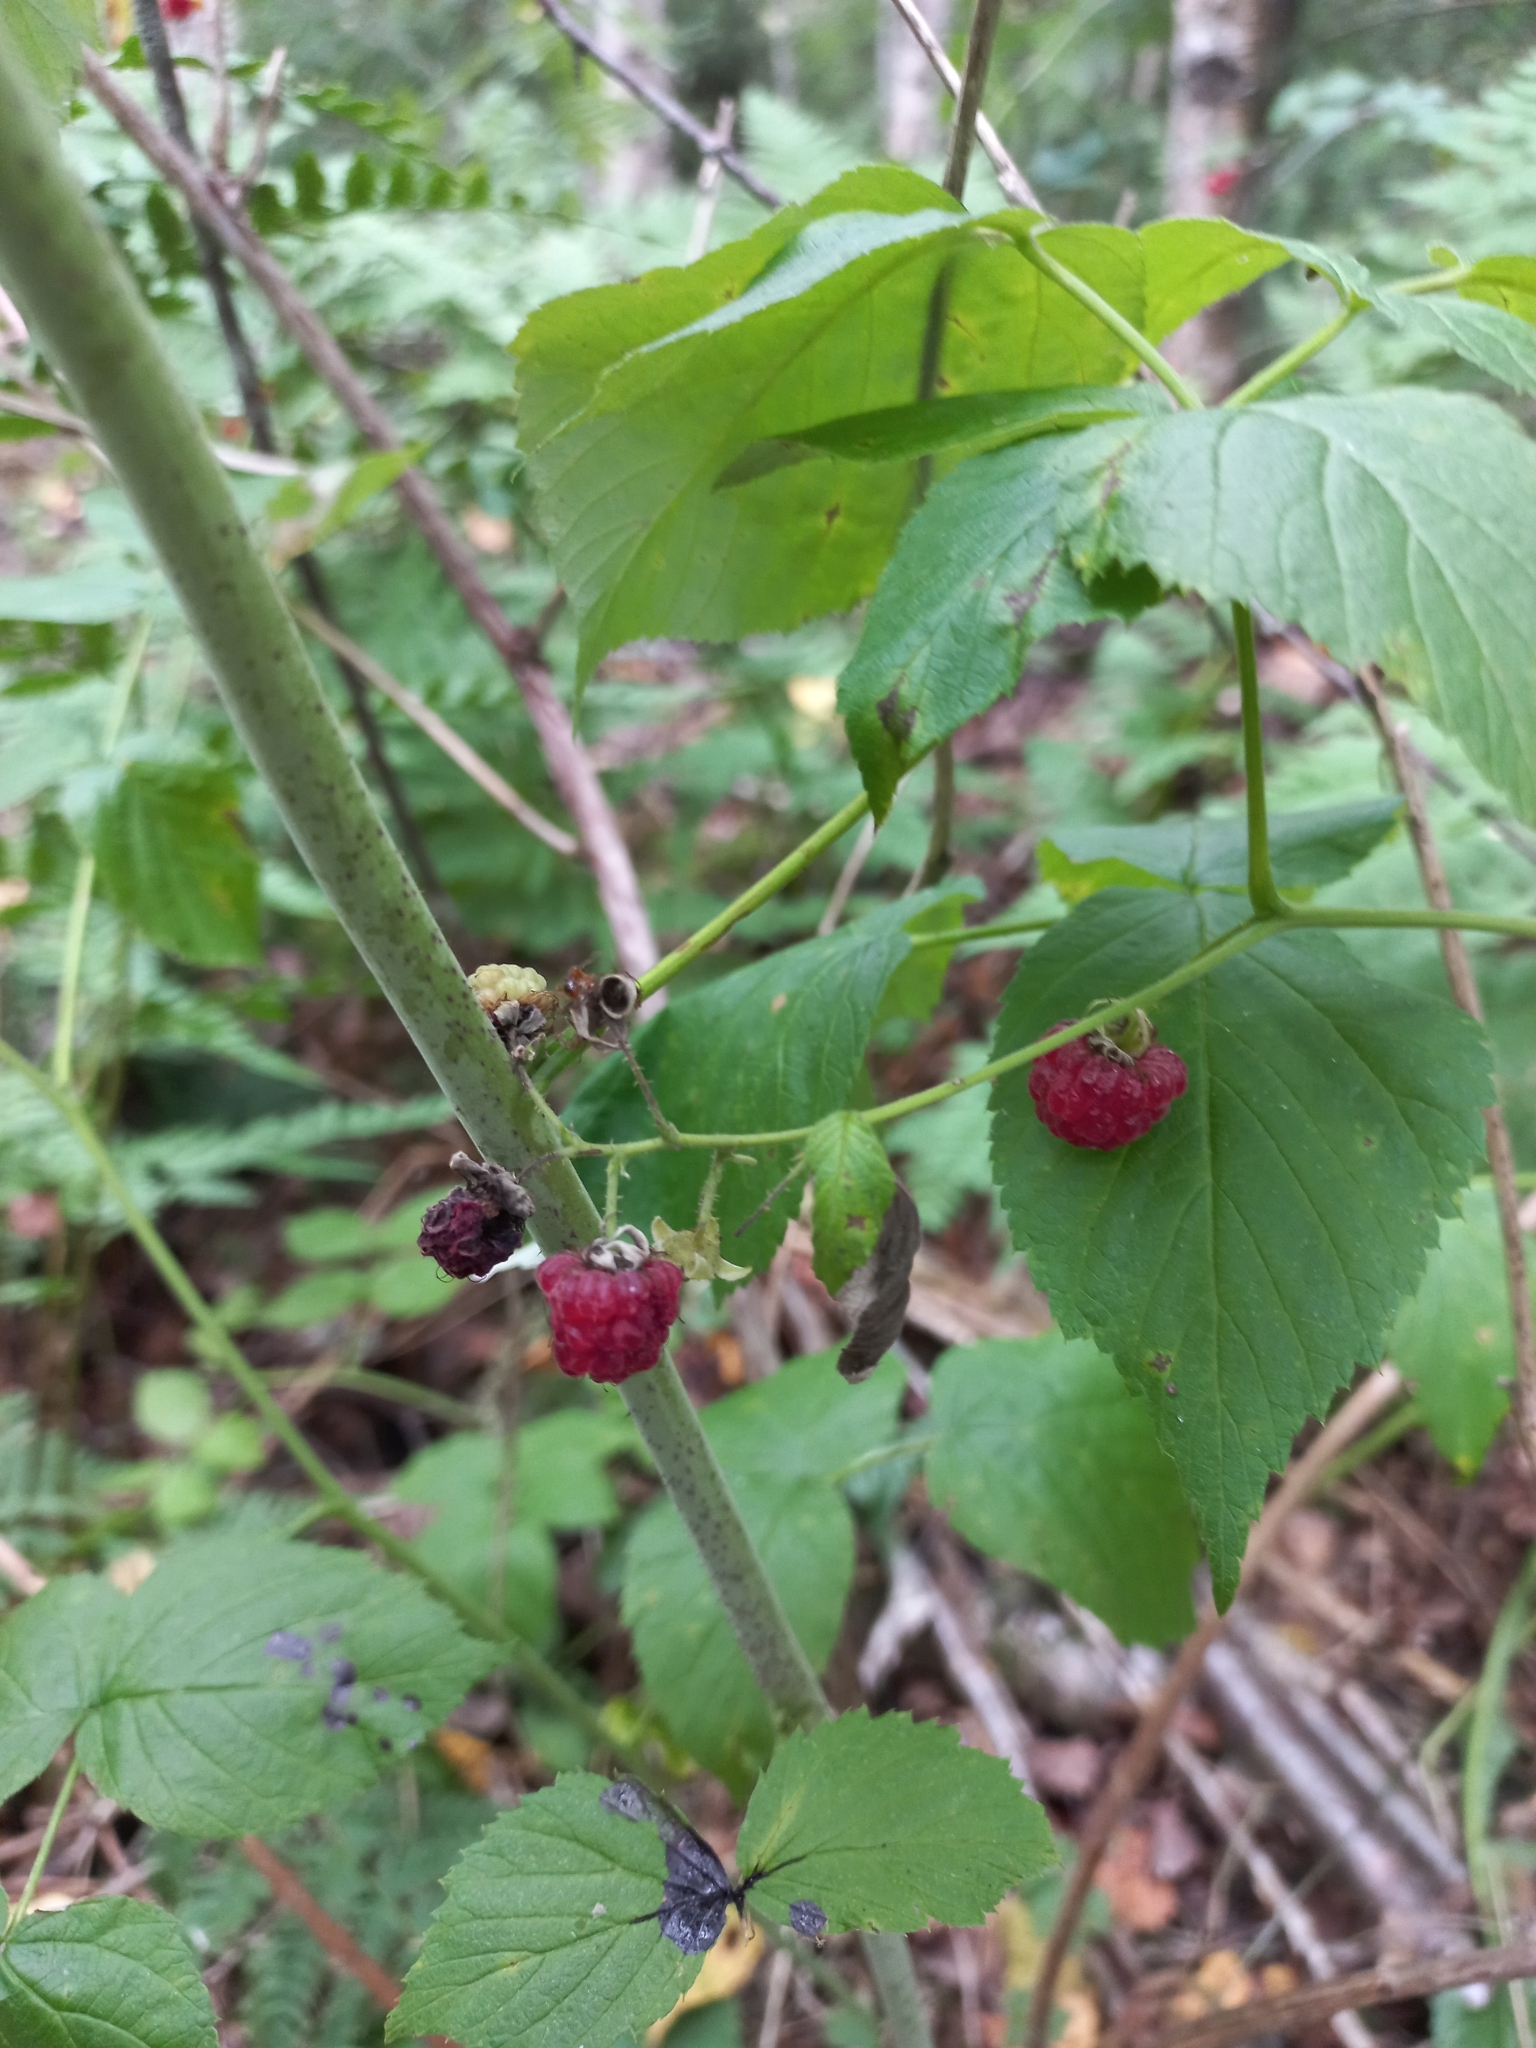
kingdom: Plantae
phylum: Tracheophyta
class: Magnoliopsida
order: Rosales
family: Rosaceae
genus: Rubus
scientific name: Rubus idaeus
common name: Raspberry
